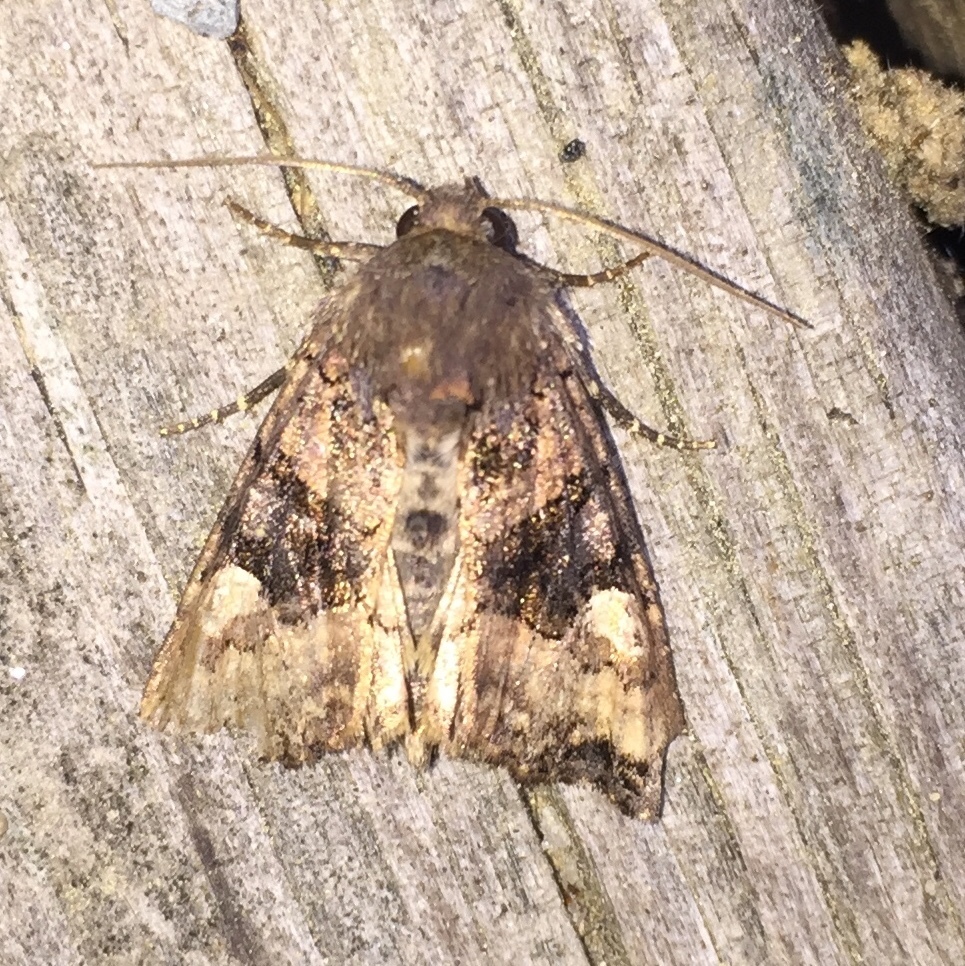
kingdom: Animalia
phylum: Arthropoda
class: Insecta
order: Lepidoptera
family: Noctuidae
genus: Euplexia
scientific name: Euplexia benesimilis
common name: American angle shades
